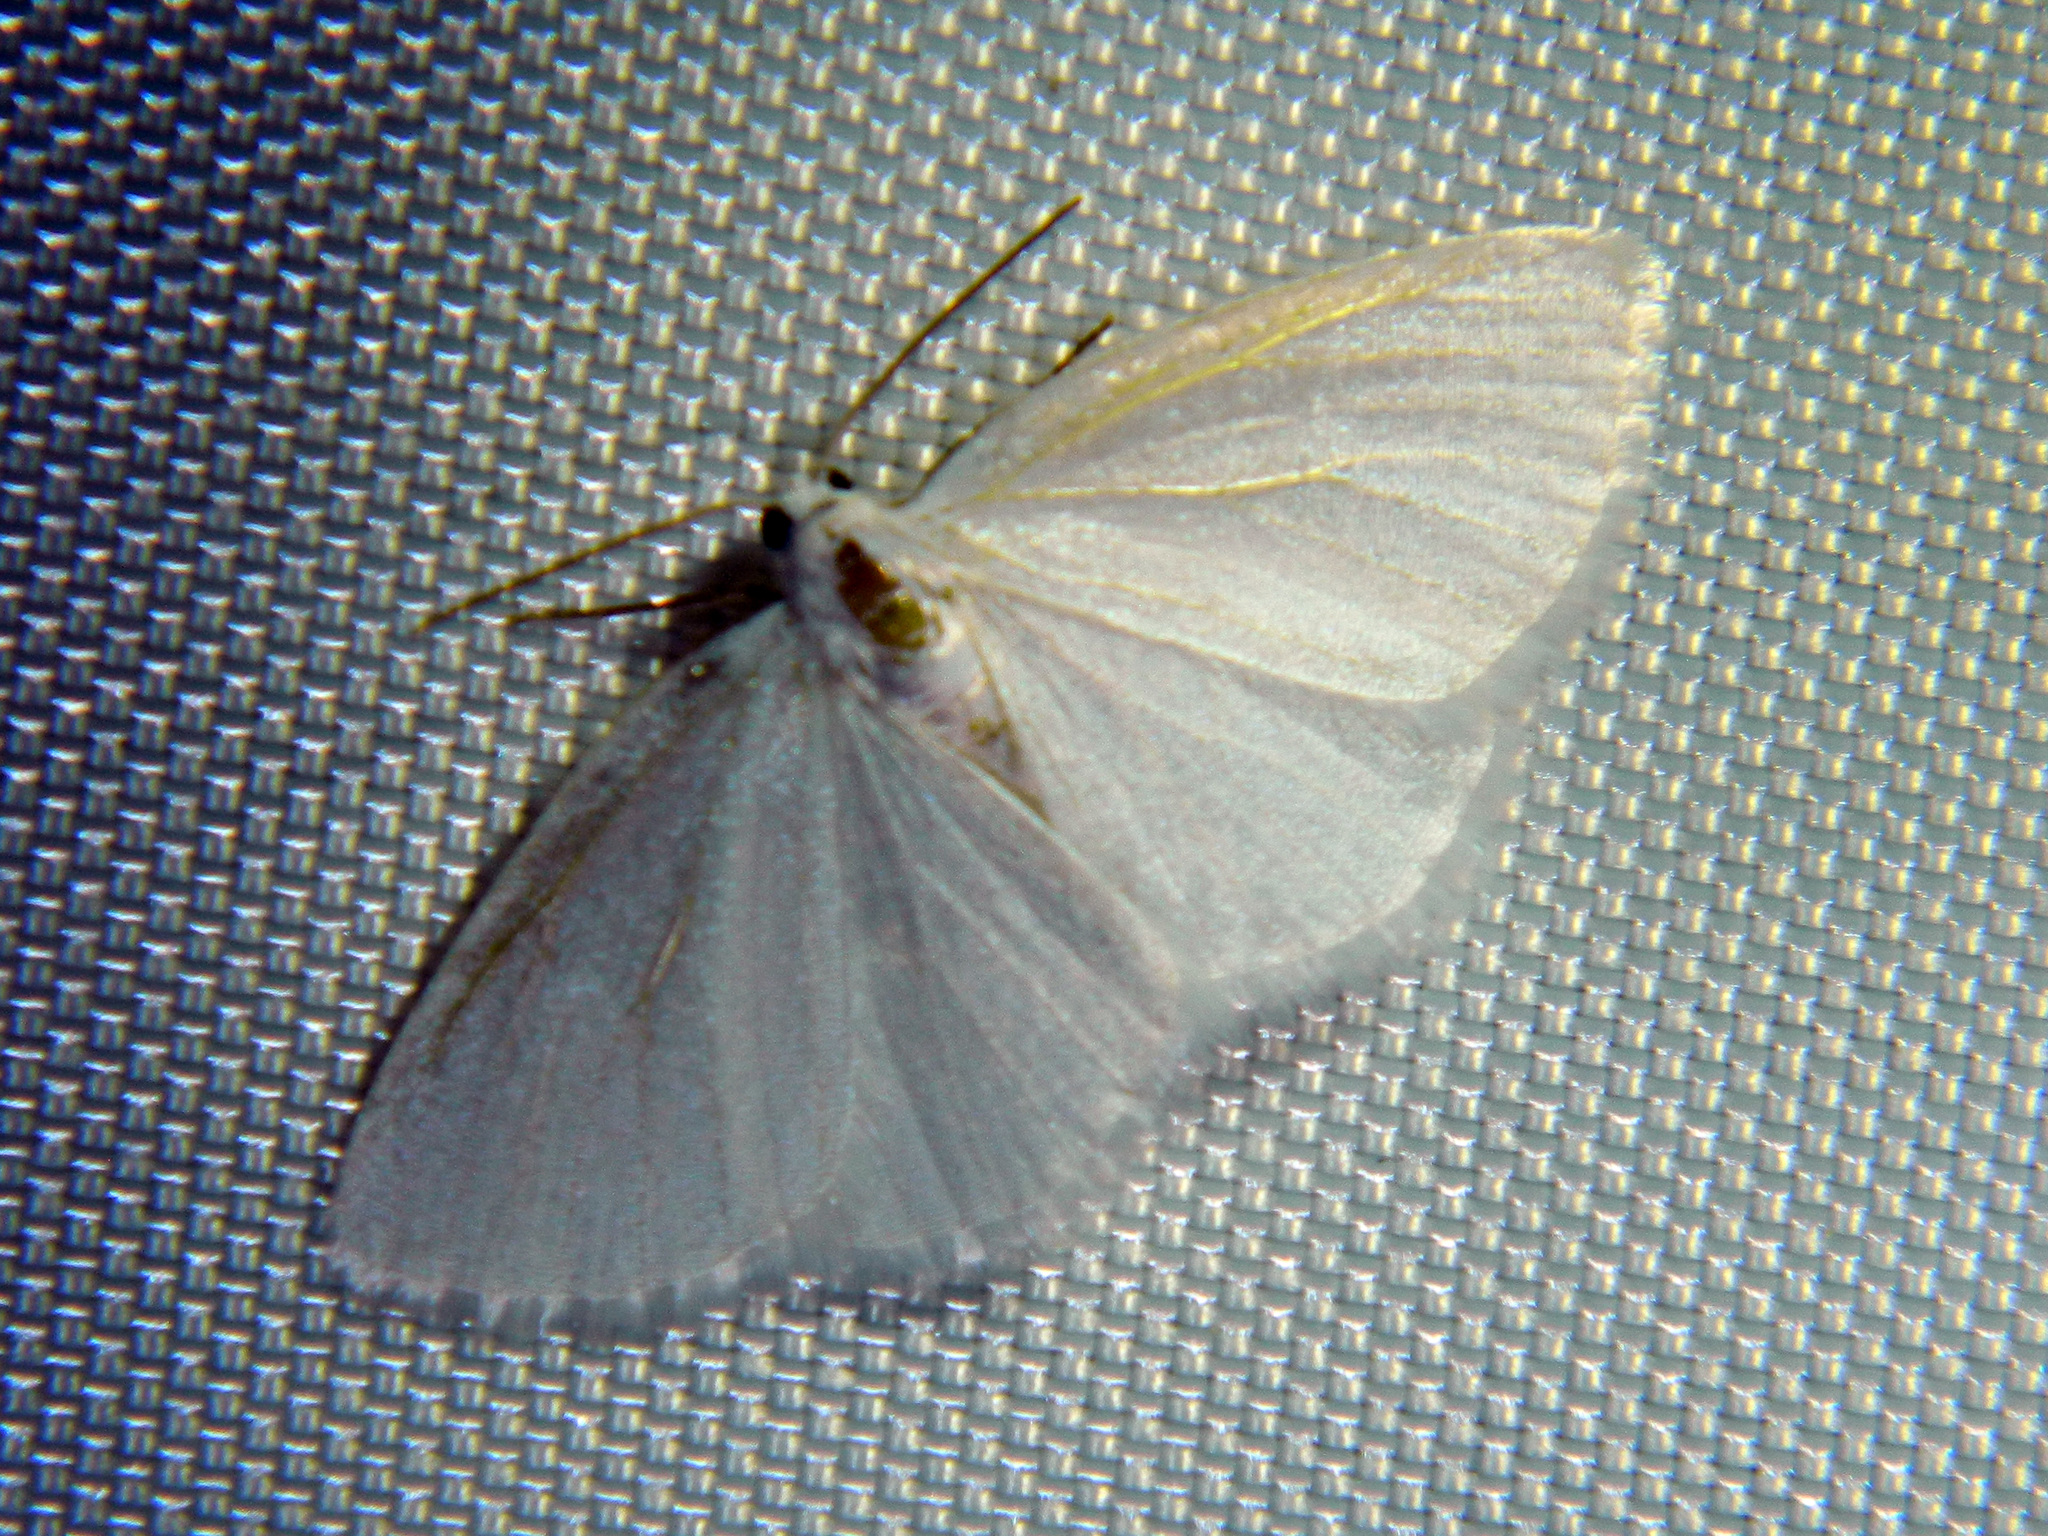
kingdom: Animalia
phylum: Arthropoda
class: Insecta
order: Lepidoptera
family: Geometridae
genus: Lomographa
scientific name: Lomographa vestaliata
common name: White spring moth
